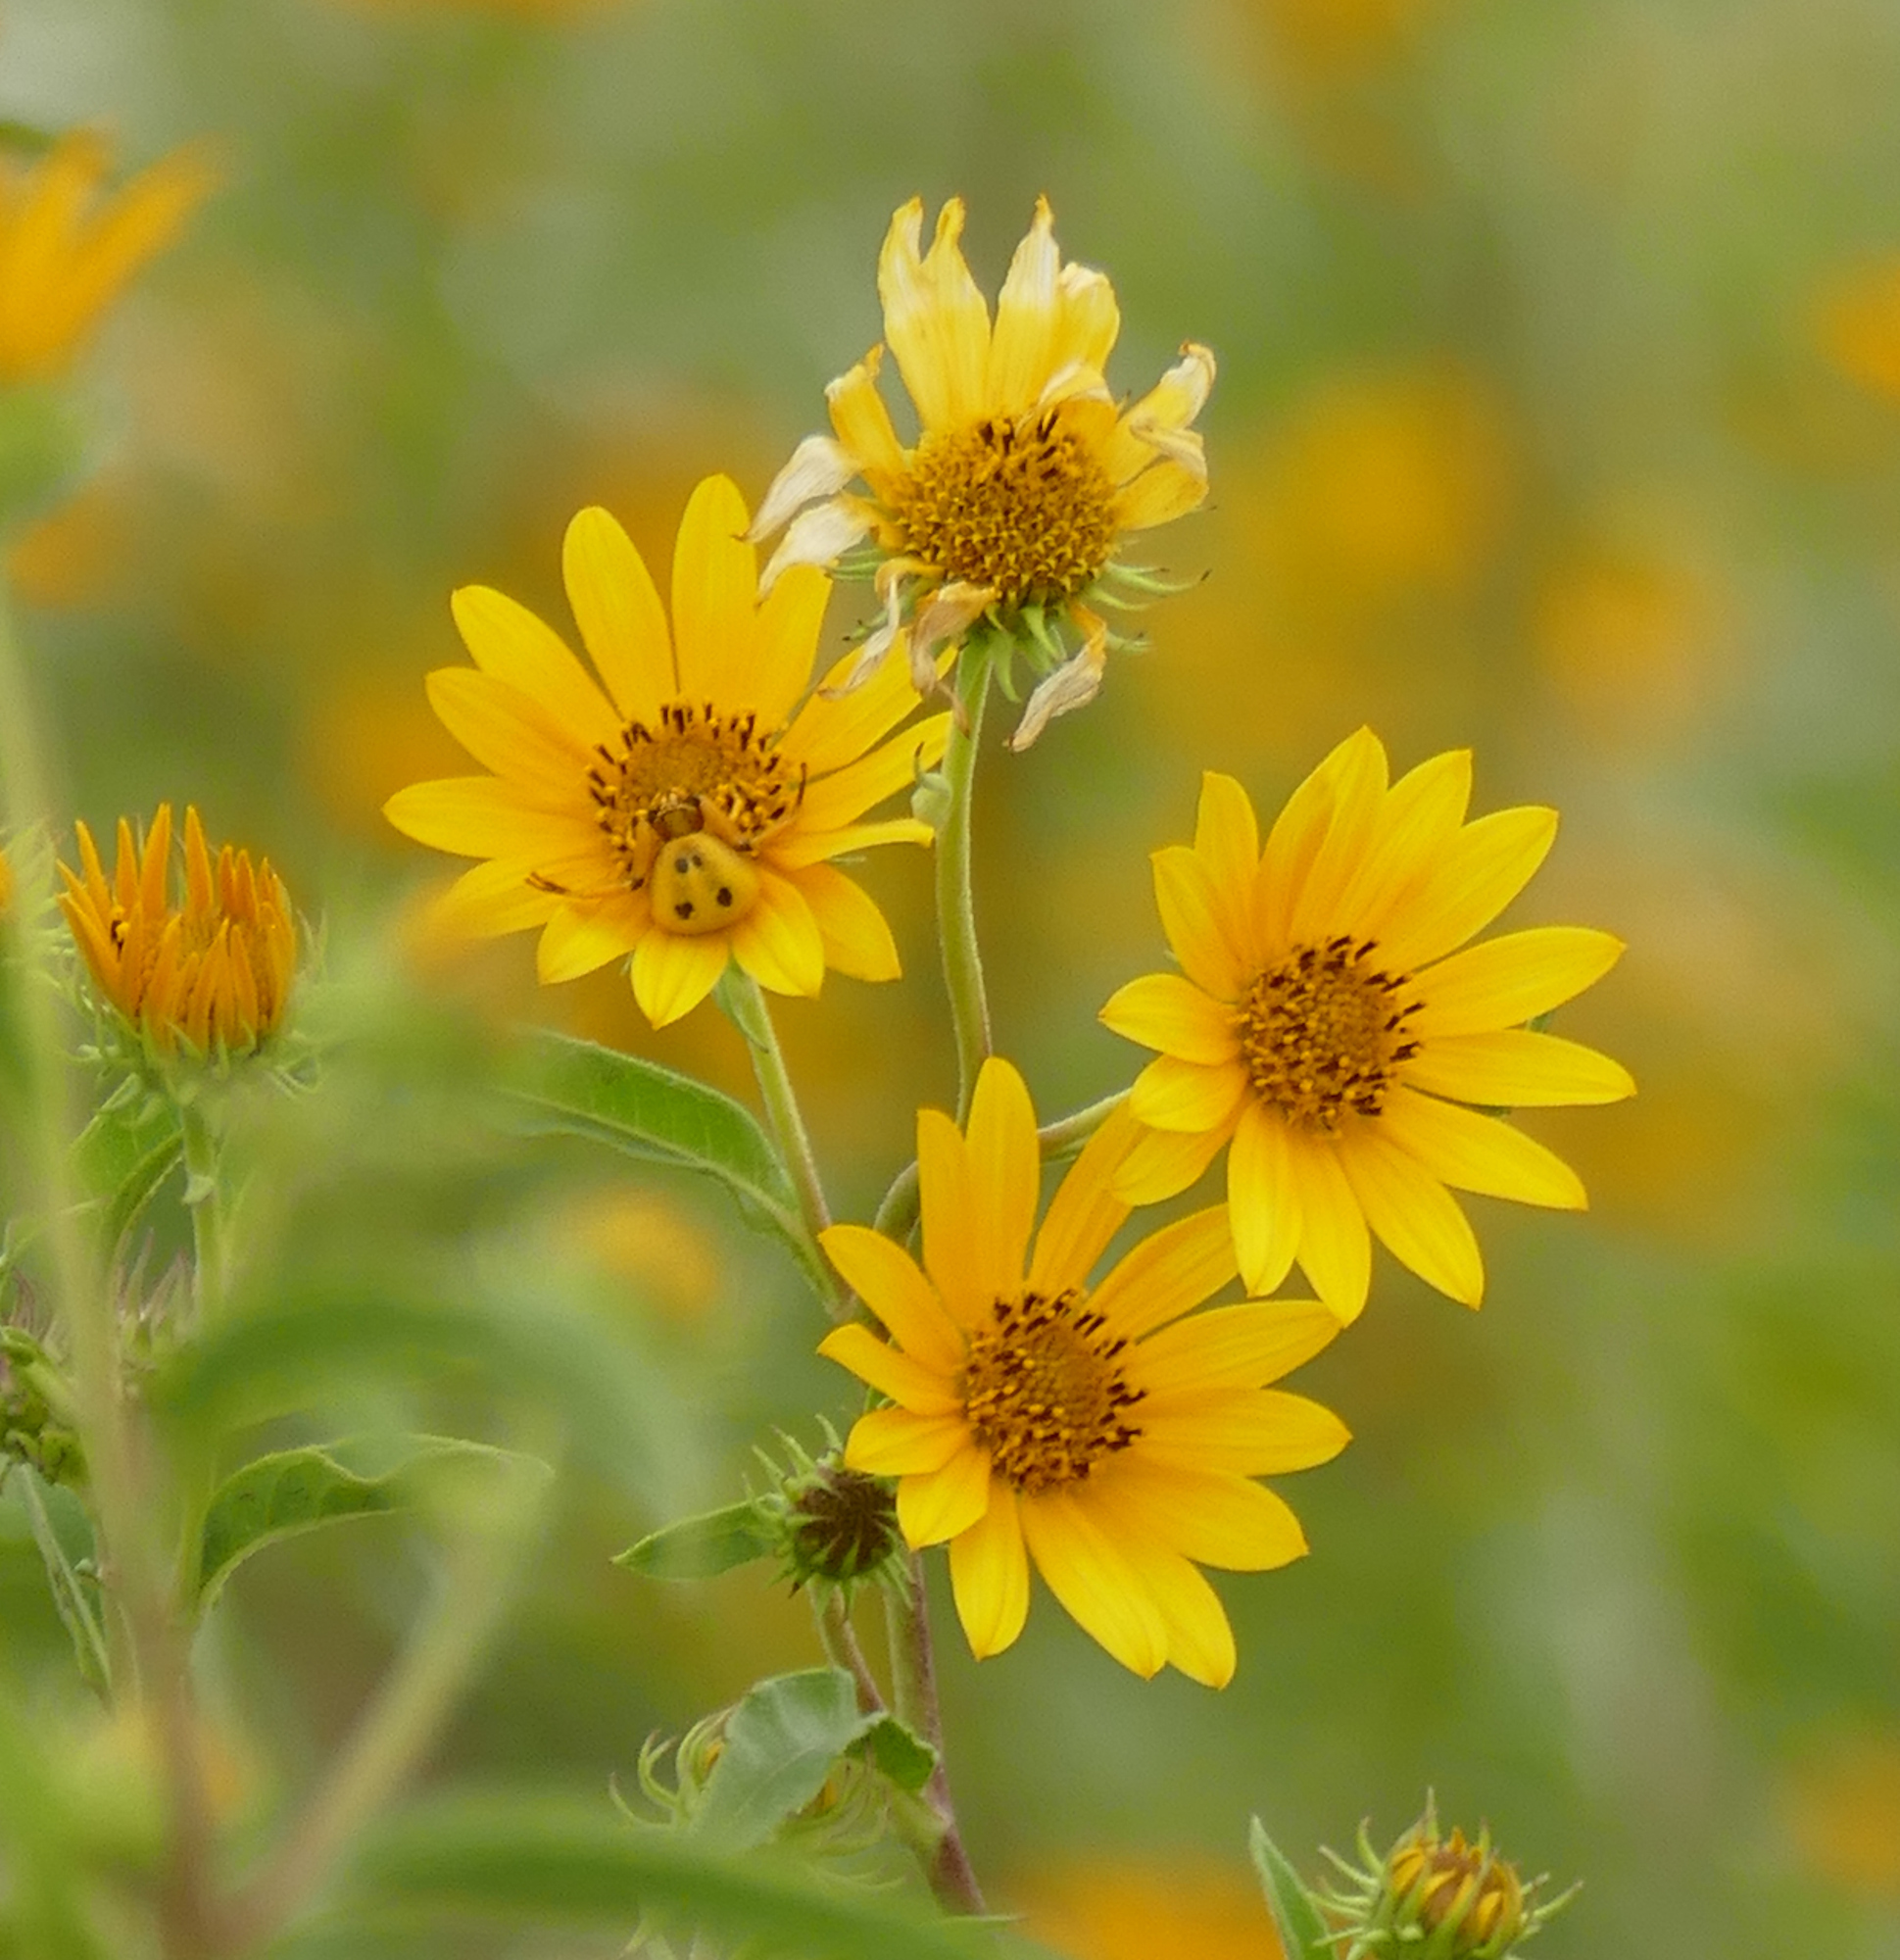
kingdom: Animalia
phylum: Arthropoda
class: Arachnida
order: Araneae
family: Thomisidae
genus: Misumenoides
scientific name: Misumenoides formosipes
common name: White-banded crab spider
